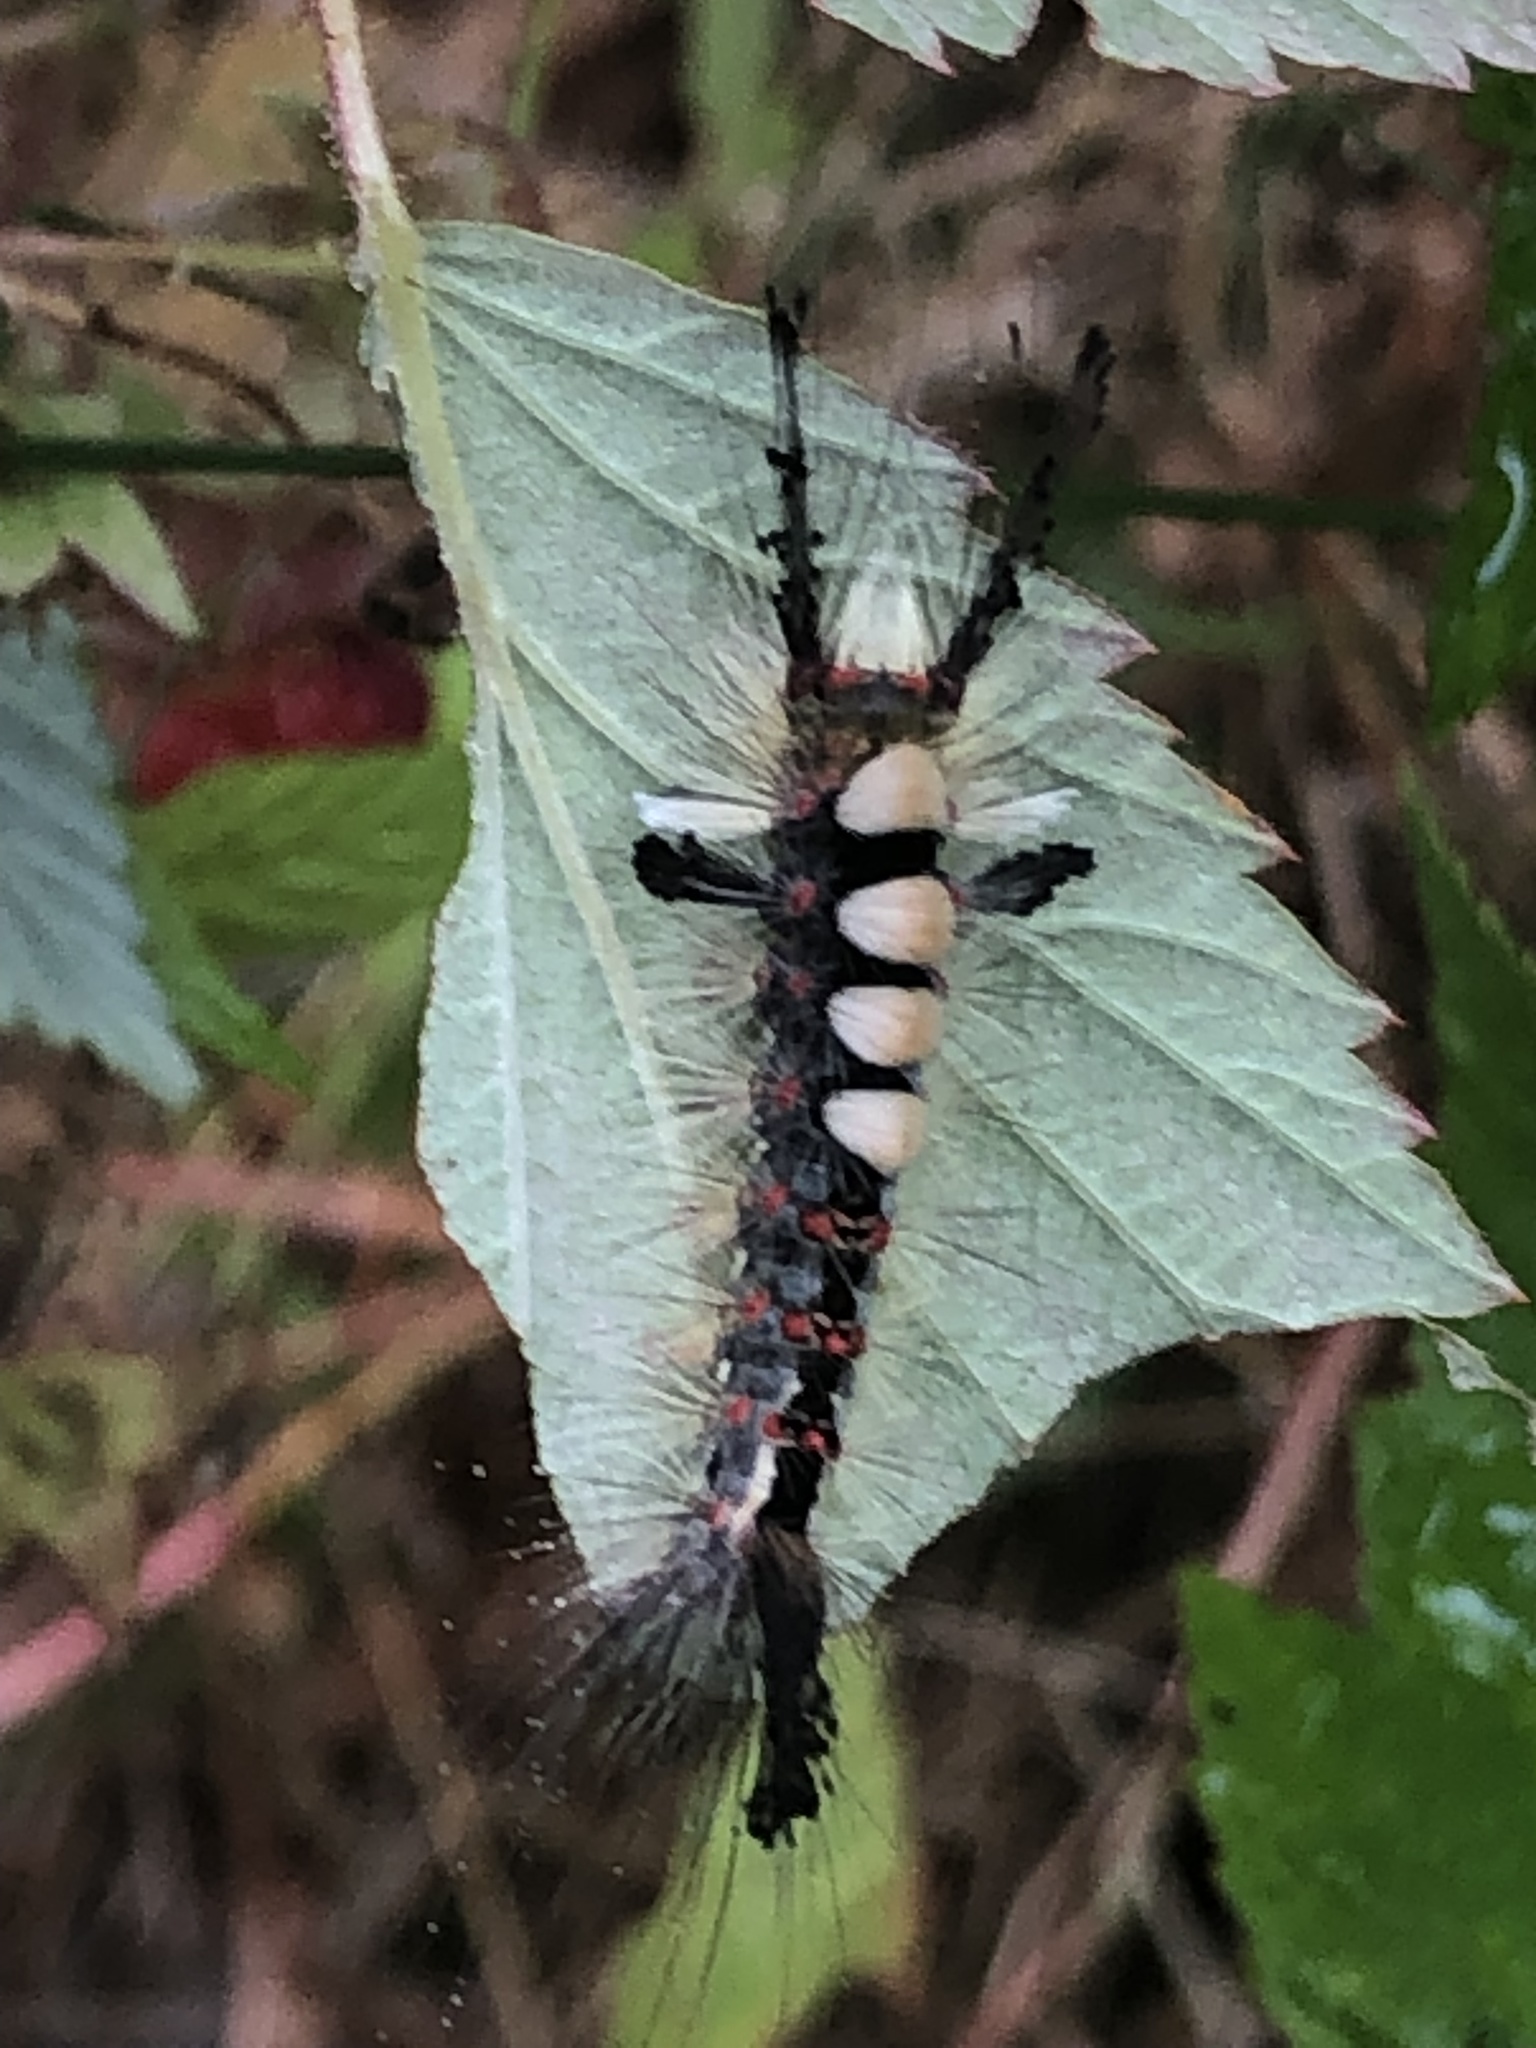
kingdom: Animalia
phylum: Arthropoda
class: Insecta
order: Lepidoptera
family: Erebidae
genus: Orgyia
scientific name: Orgyia antiqua
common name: Vapourer
